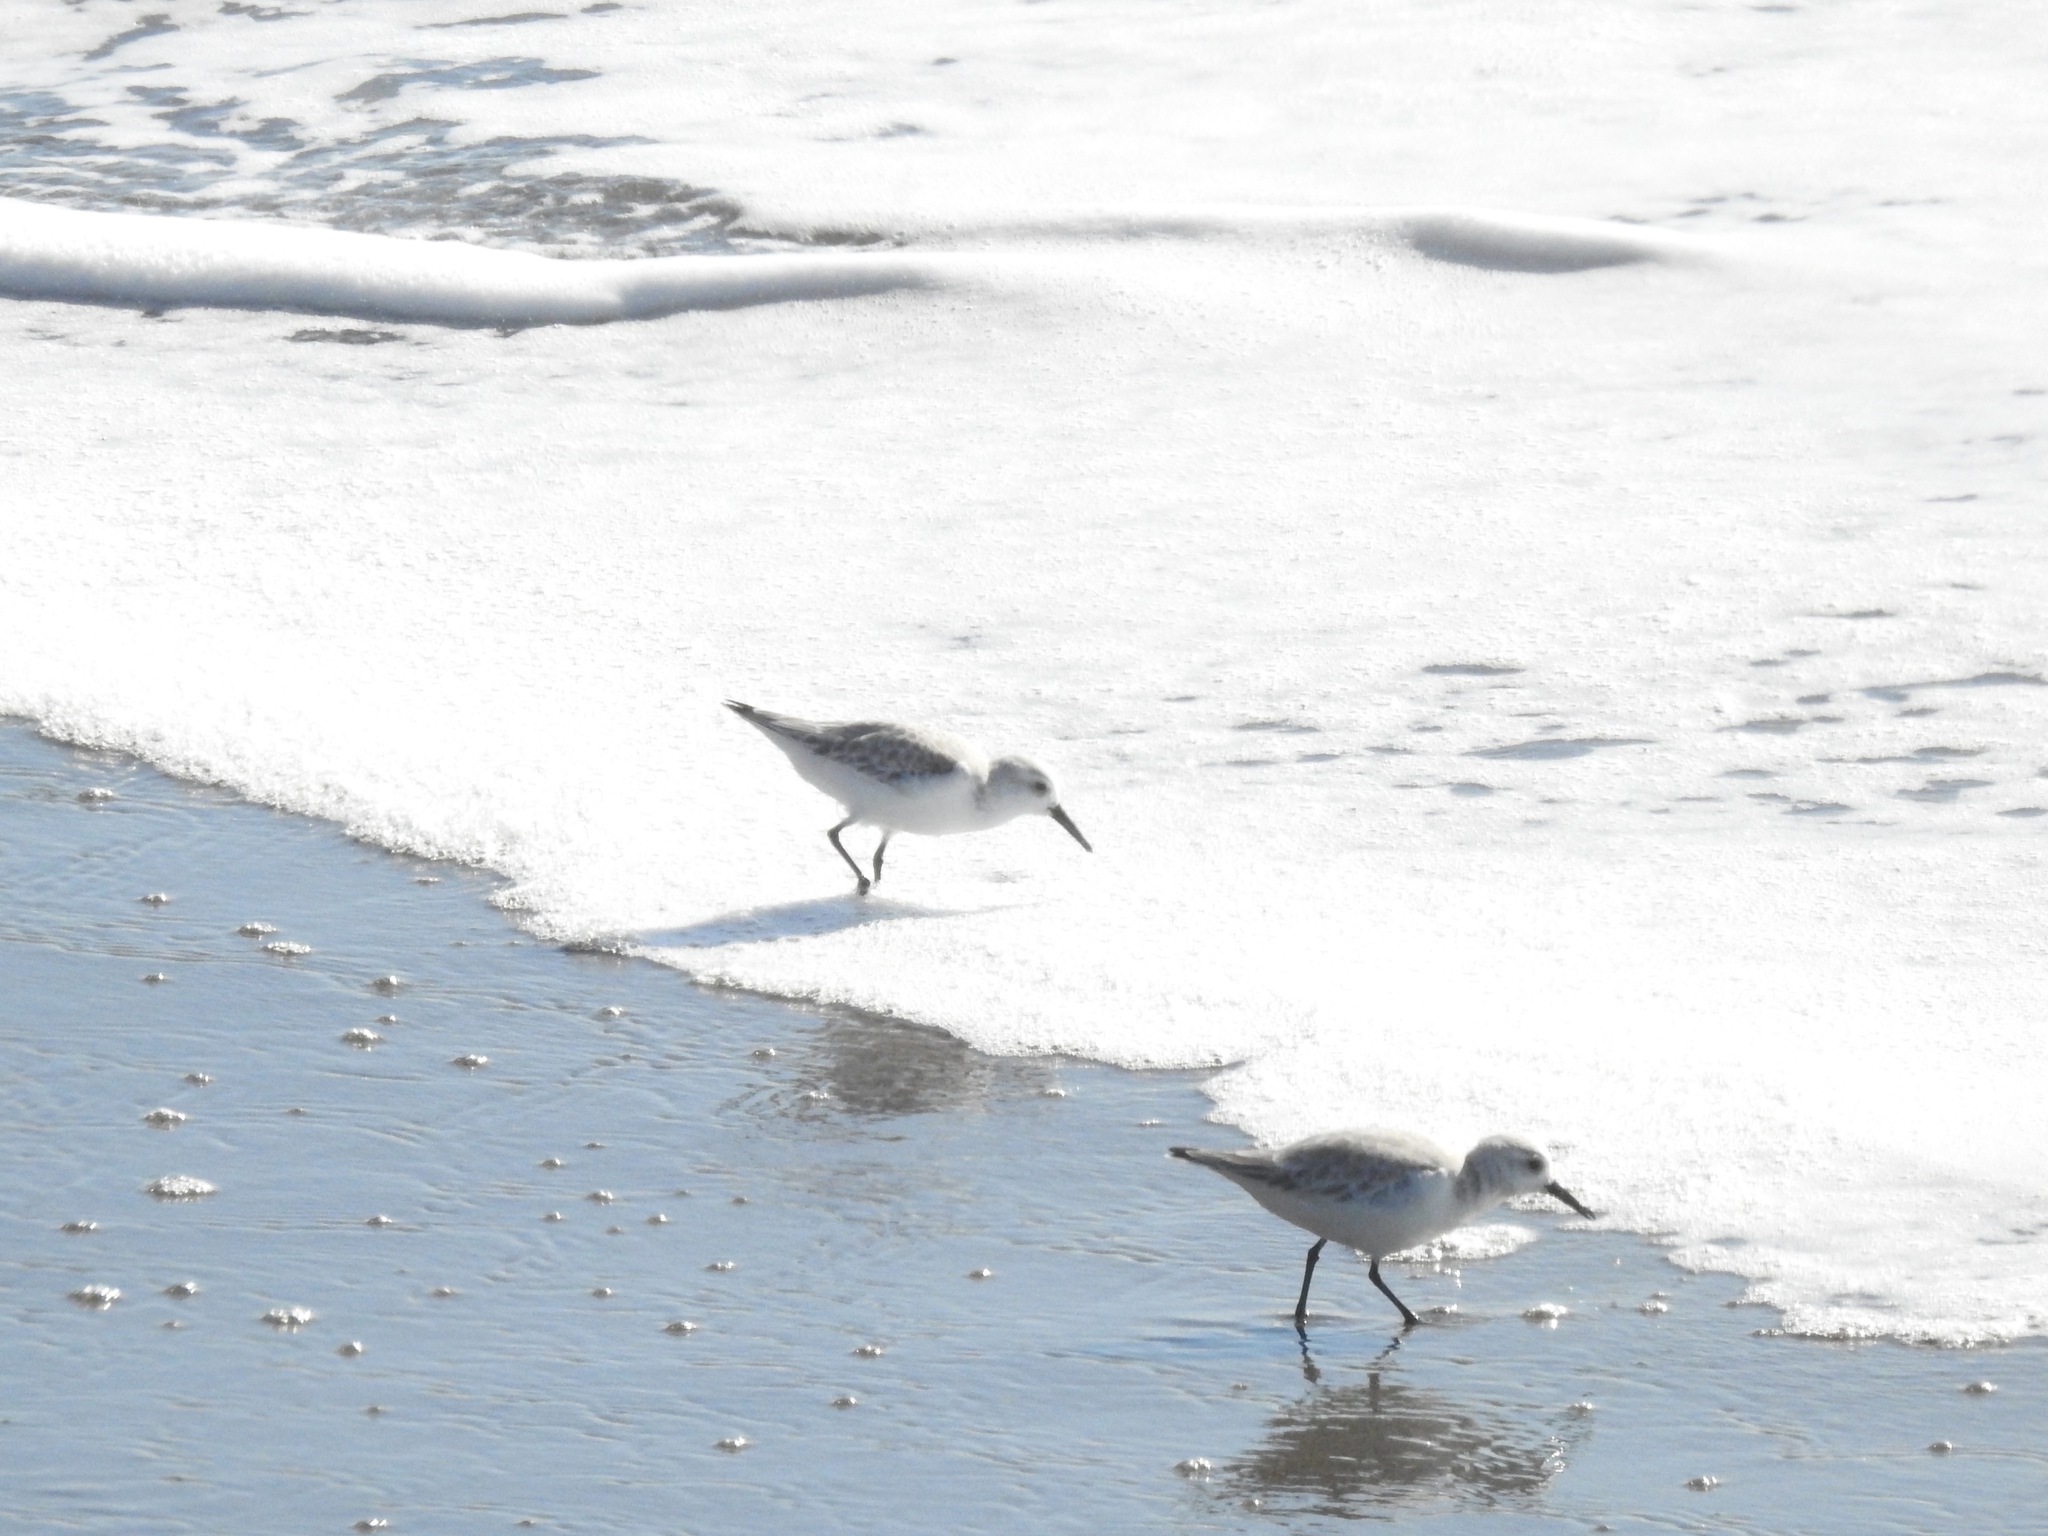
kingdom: Animalia
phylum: Chordata
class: Aves
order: Charadriiformes
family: Scolopacidae
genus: Calidris
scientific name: Calidris alba
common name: Sanderling
